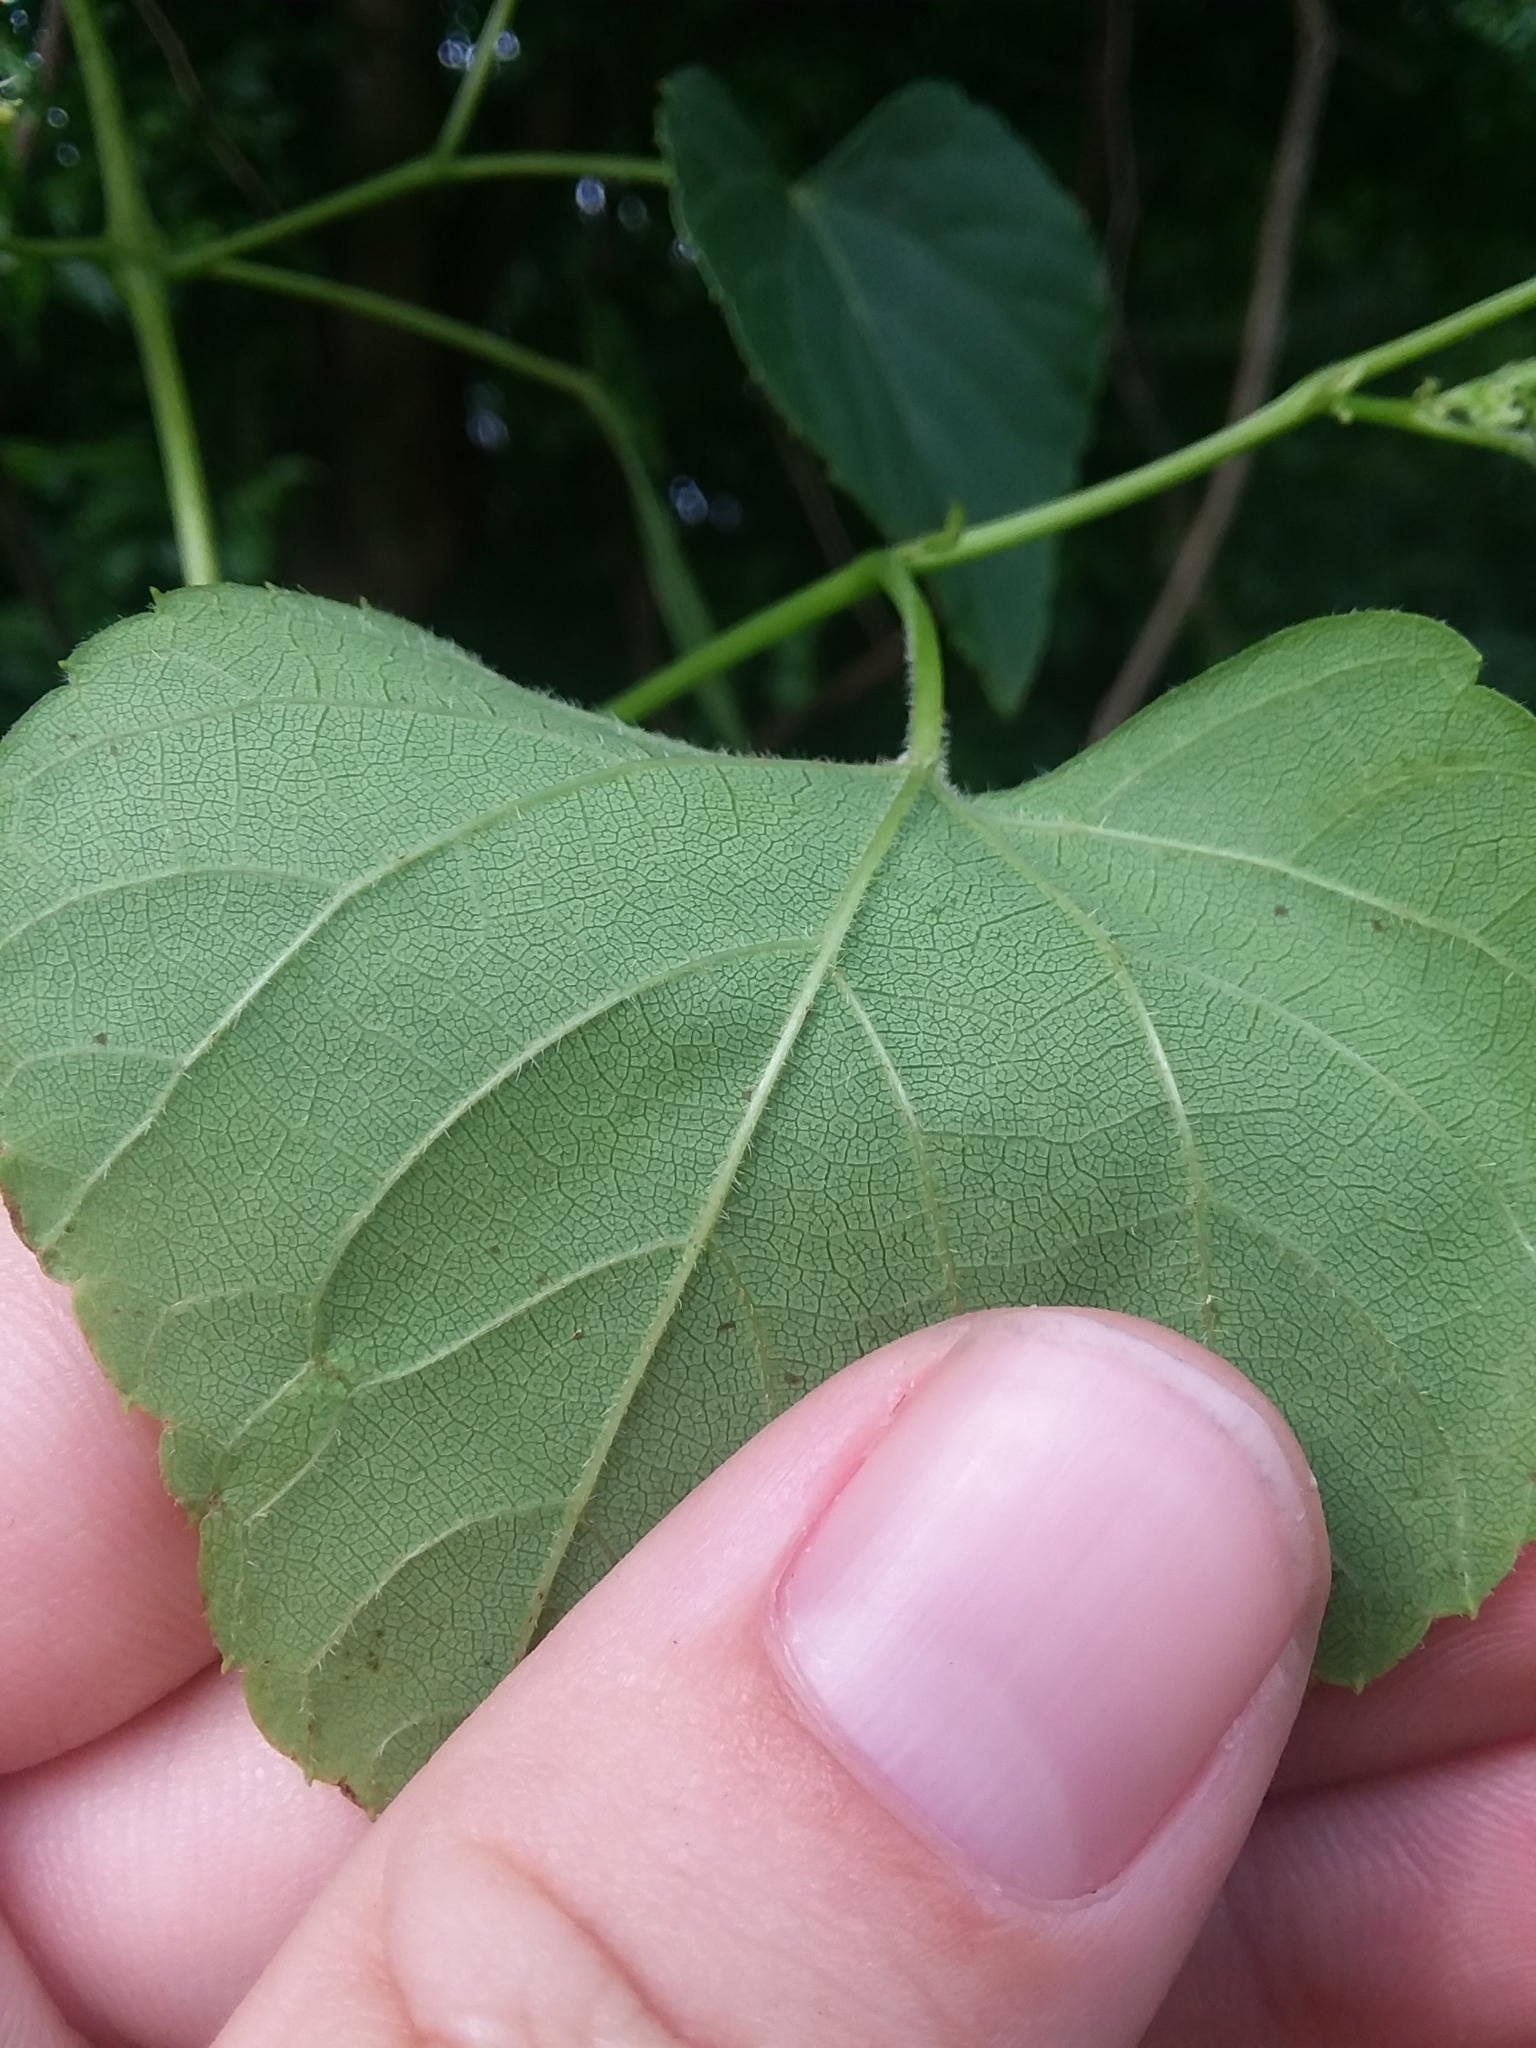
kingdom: Plantae
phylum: Tracheophyta
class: Magnoliopsida
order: Vitales
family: Vitaceae
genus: Ampelopsis
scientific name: Ampelopsis cordata
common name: Heart-leaf ampelopsis
